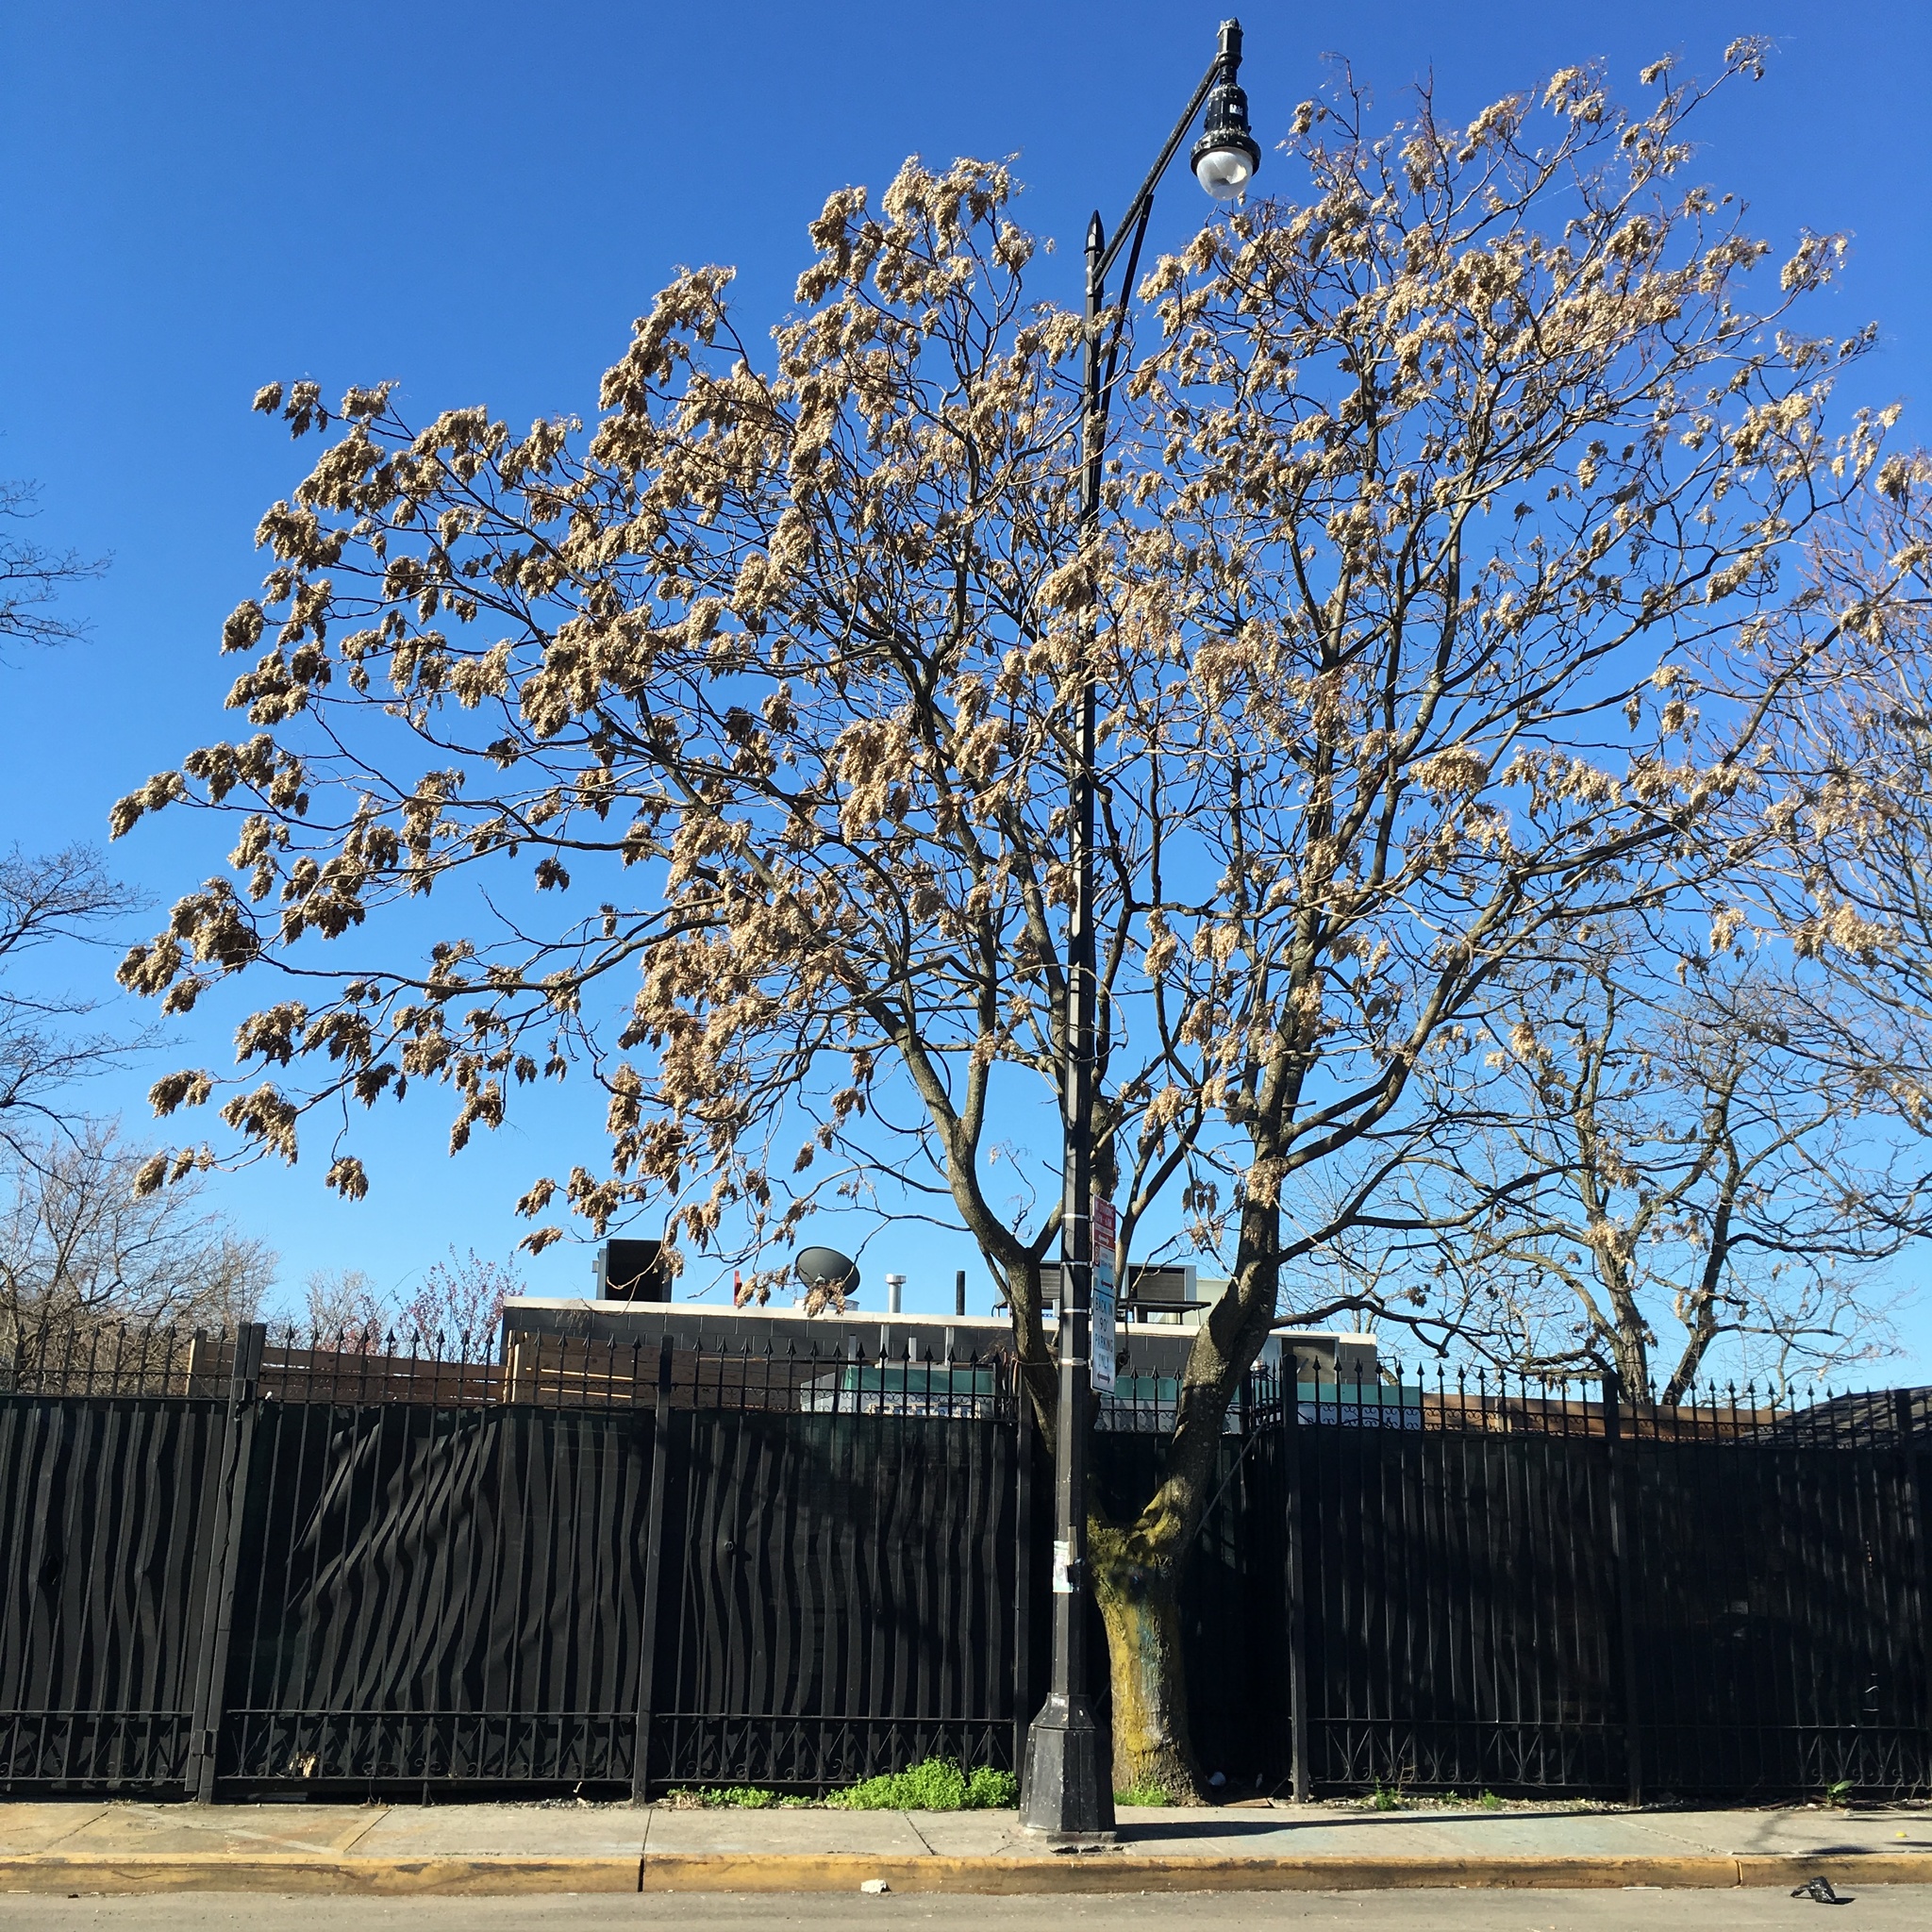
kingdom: Plantae
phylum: Tracheophyta
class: Magnoliopsida
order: Sapindales
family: Simaroubaceae
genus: Ailanthus
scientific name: Ailanthus altissima
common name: Tree-of-heaven
